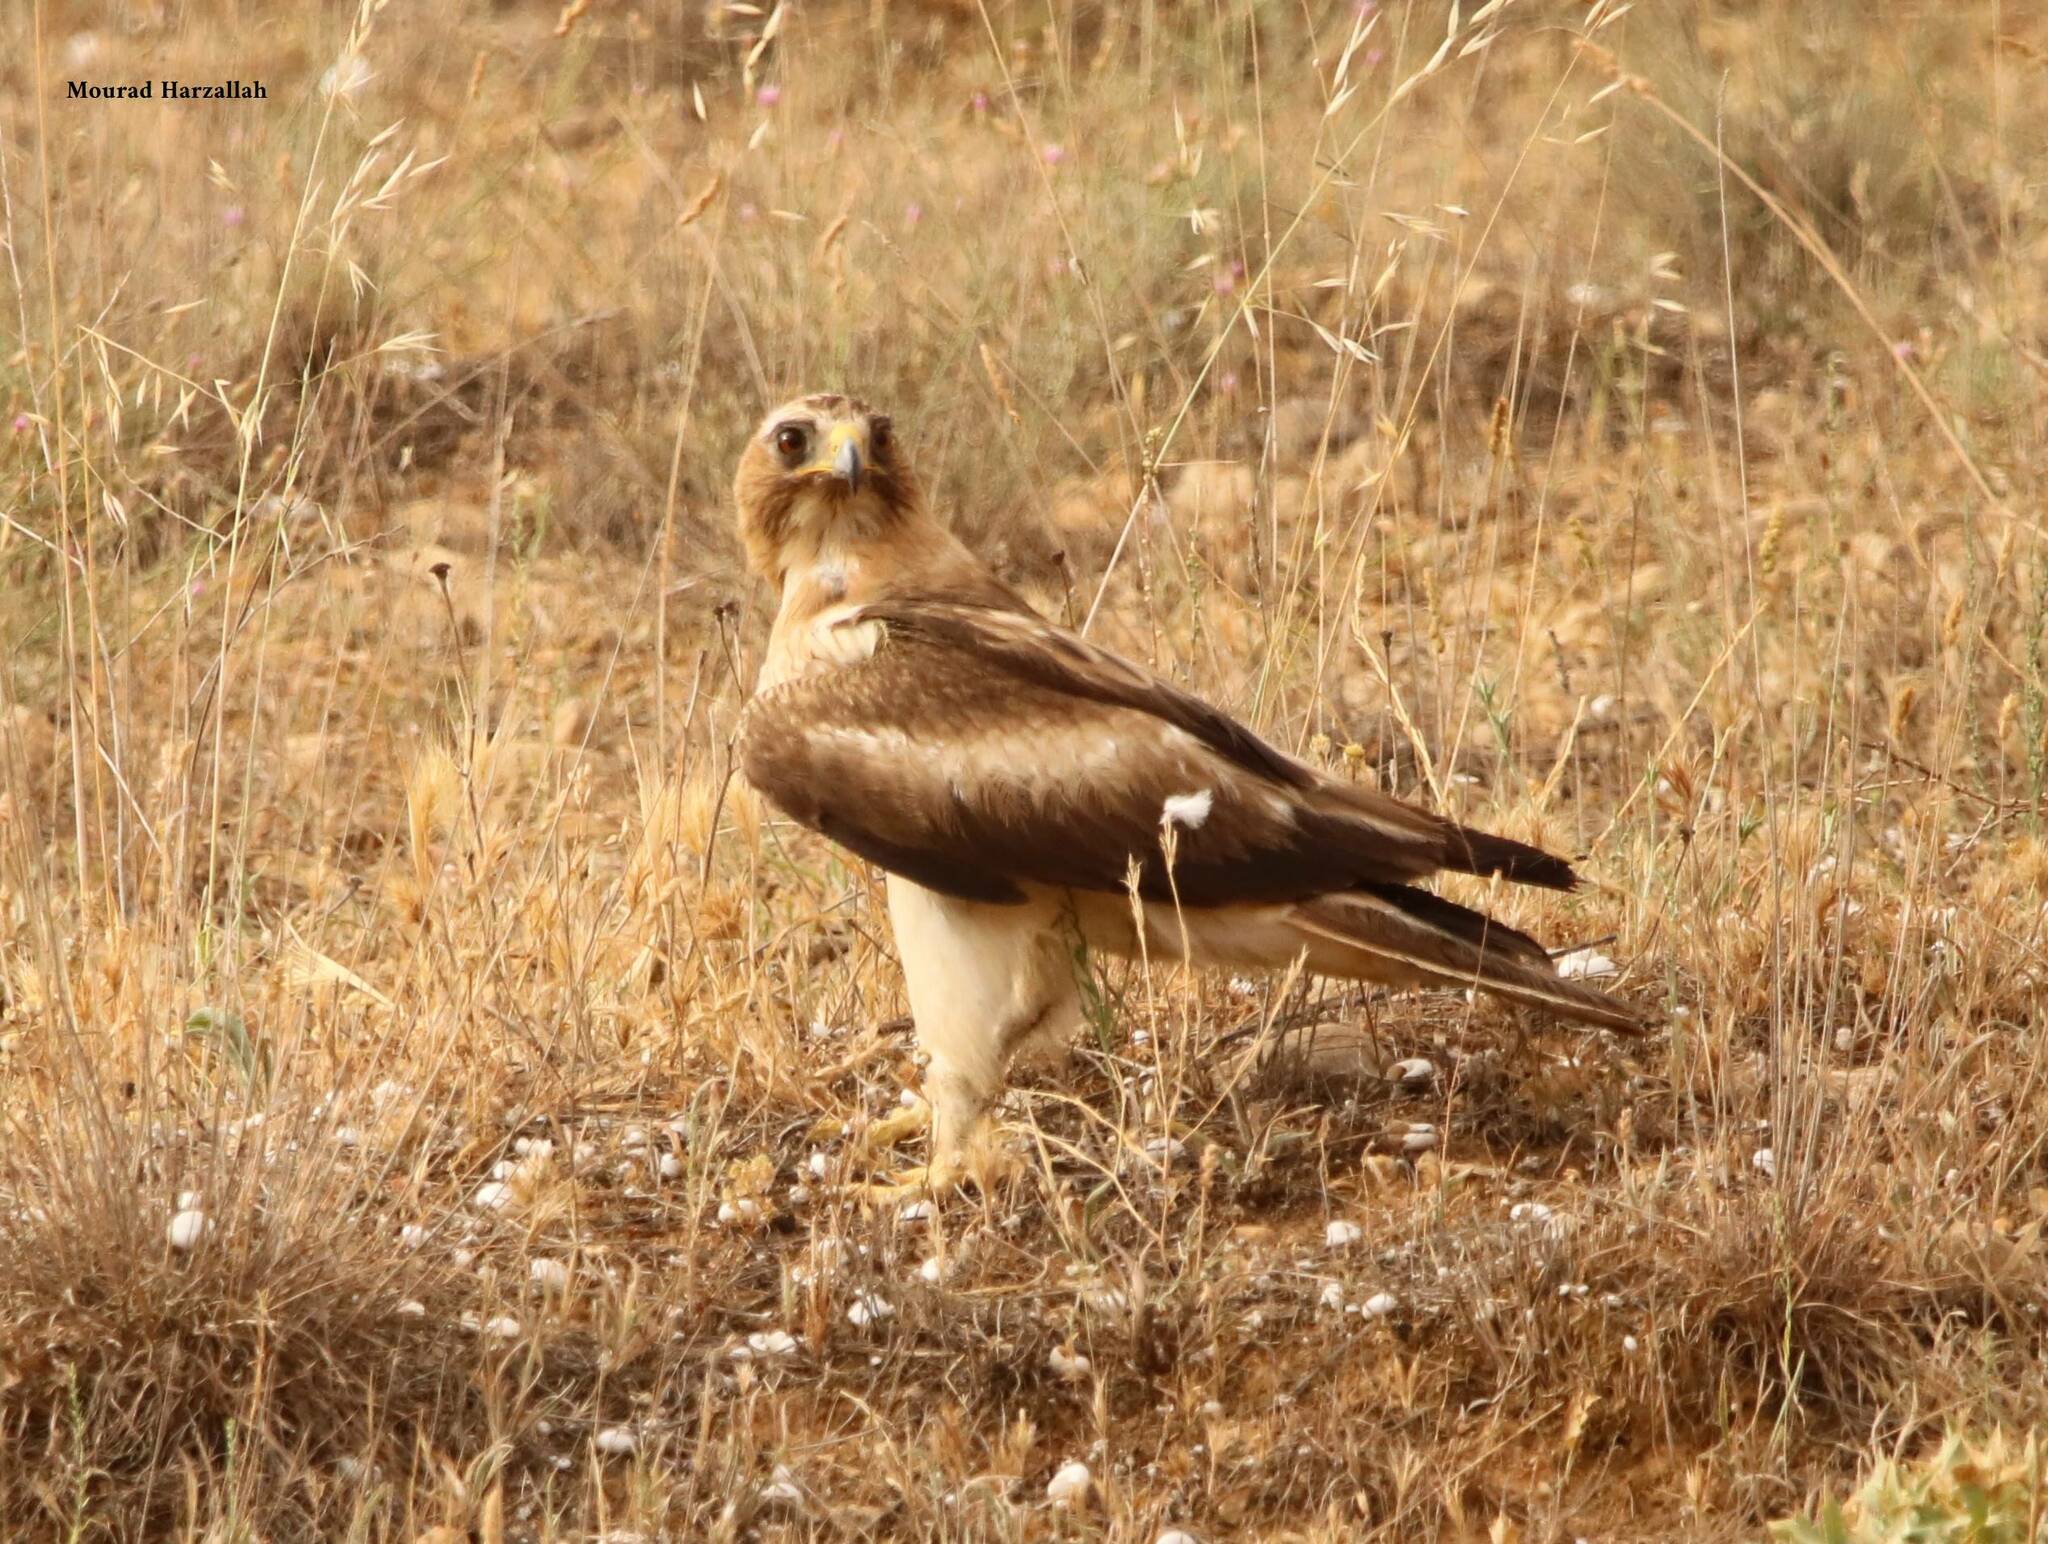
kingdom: Animalia
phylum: Chordata
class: Aves
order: Accipitriformes
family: Accipitridae
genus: Hieraaetus
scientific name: Hieraaetus pennatus
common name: Booted eagle
